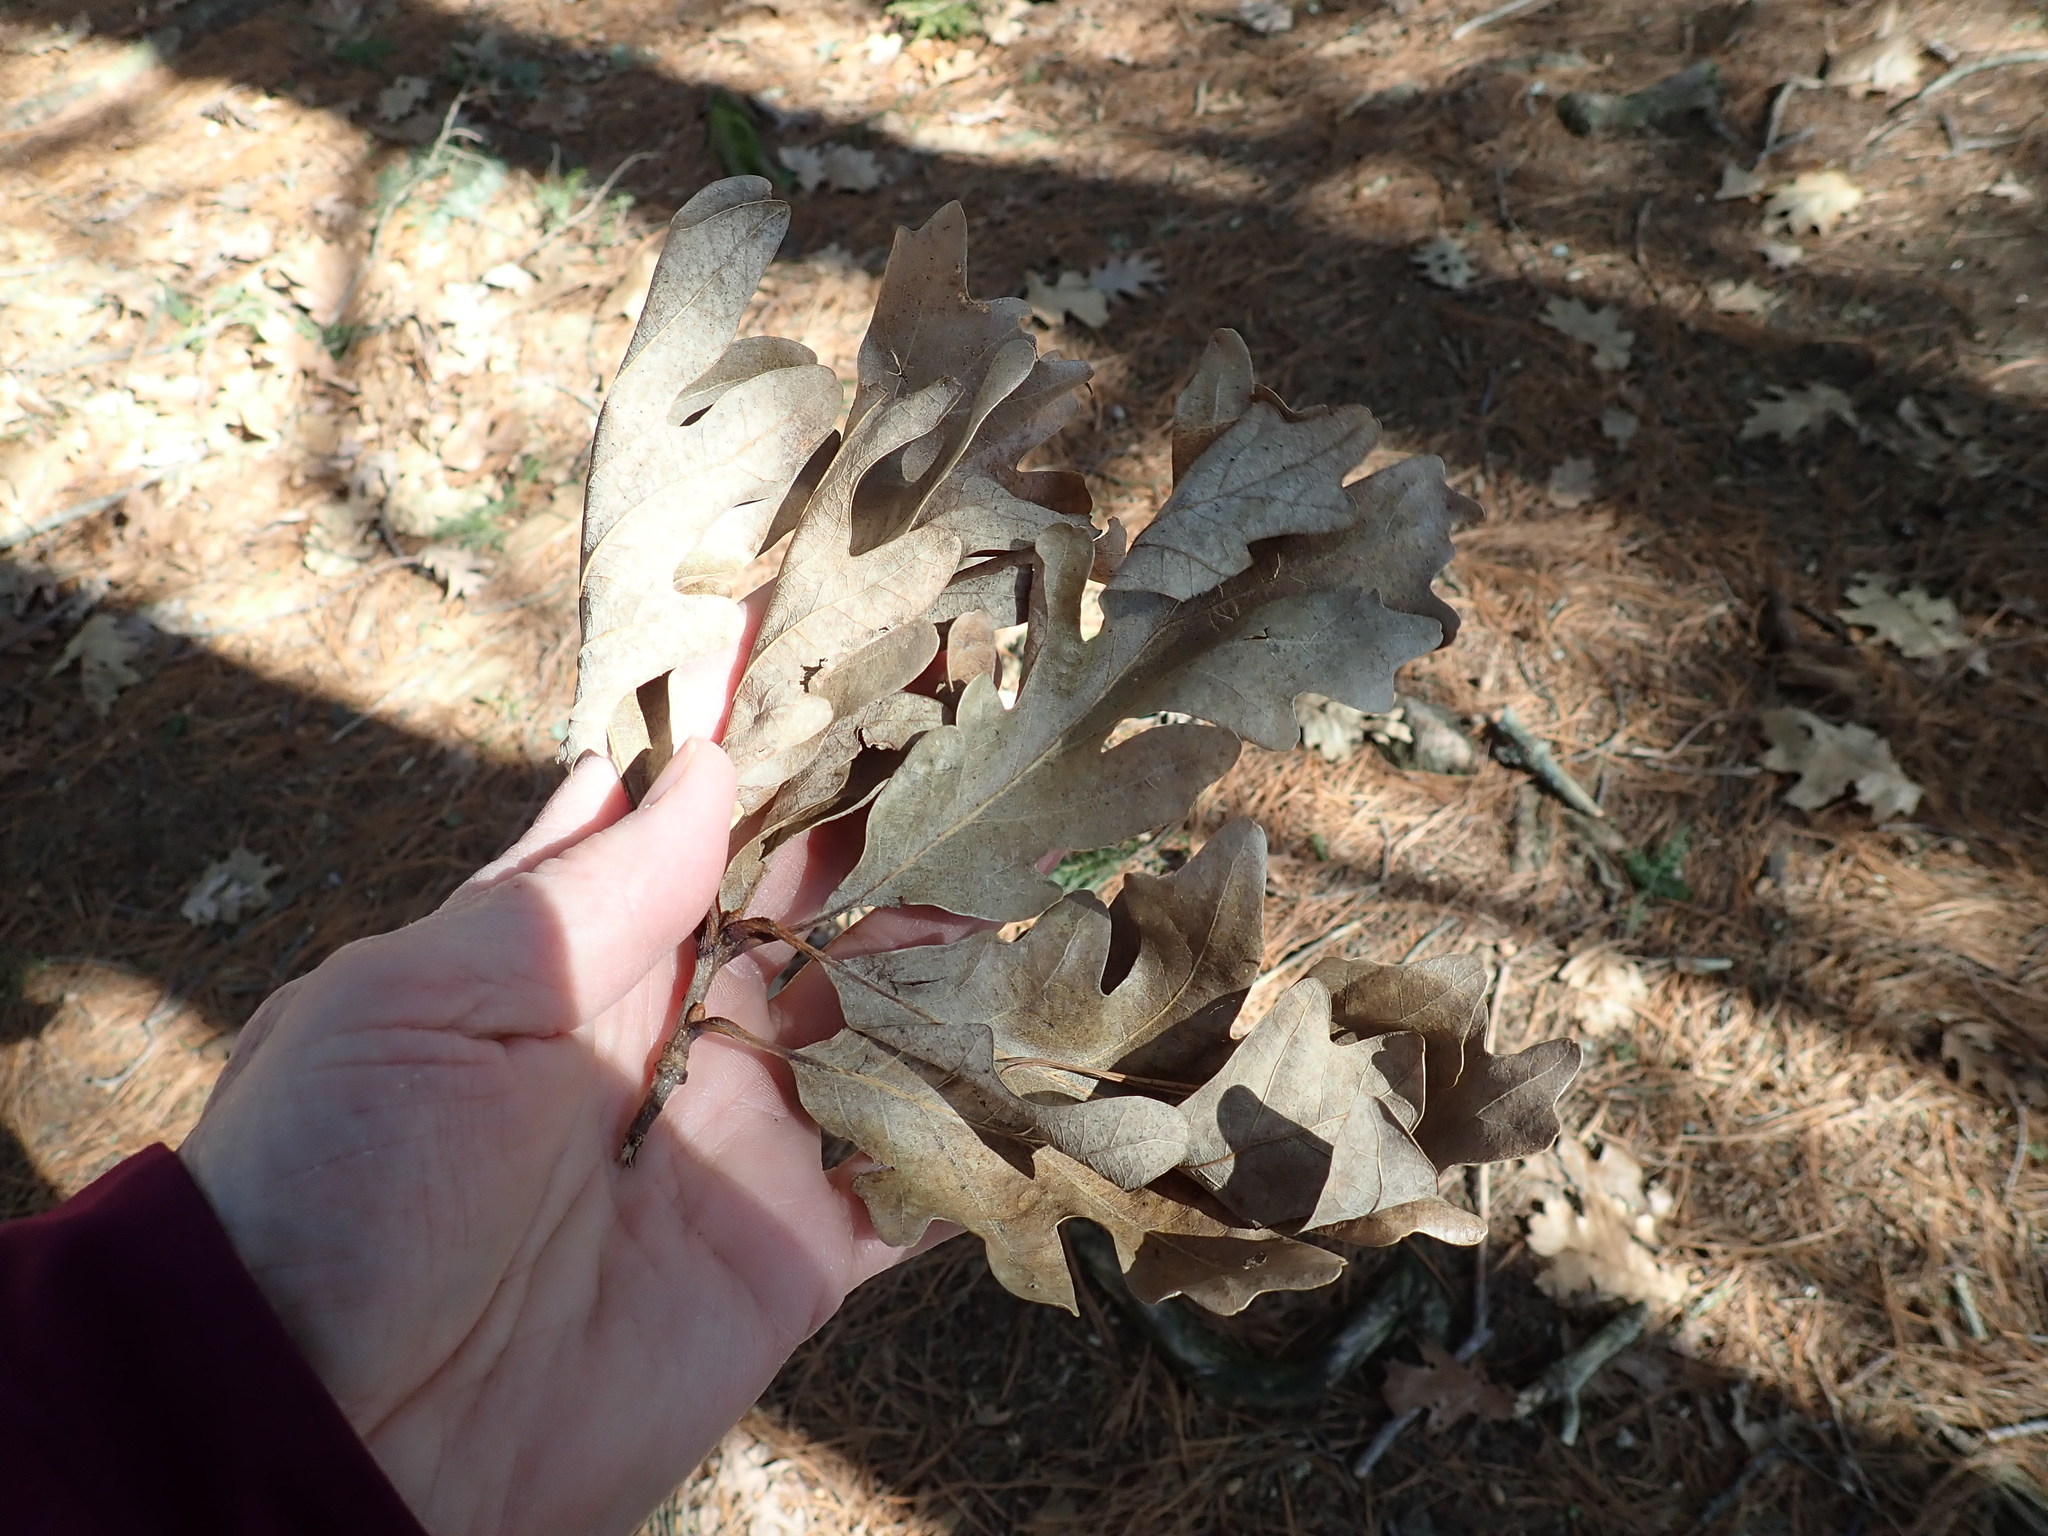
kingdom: Plantae
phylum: Tracheophyta
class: Magnoliopsida
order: Fagales
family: Fagaceae
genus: Quercus
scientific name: Quercus alba
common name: White oak
